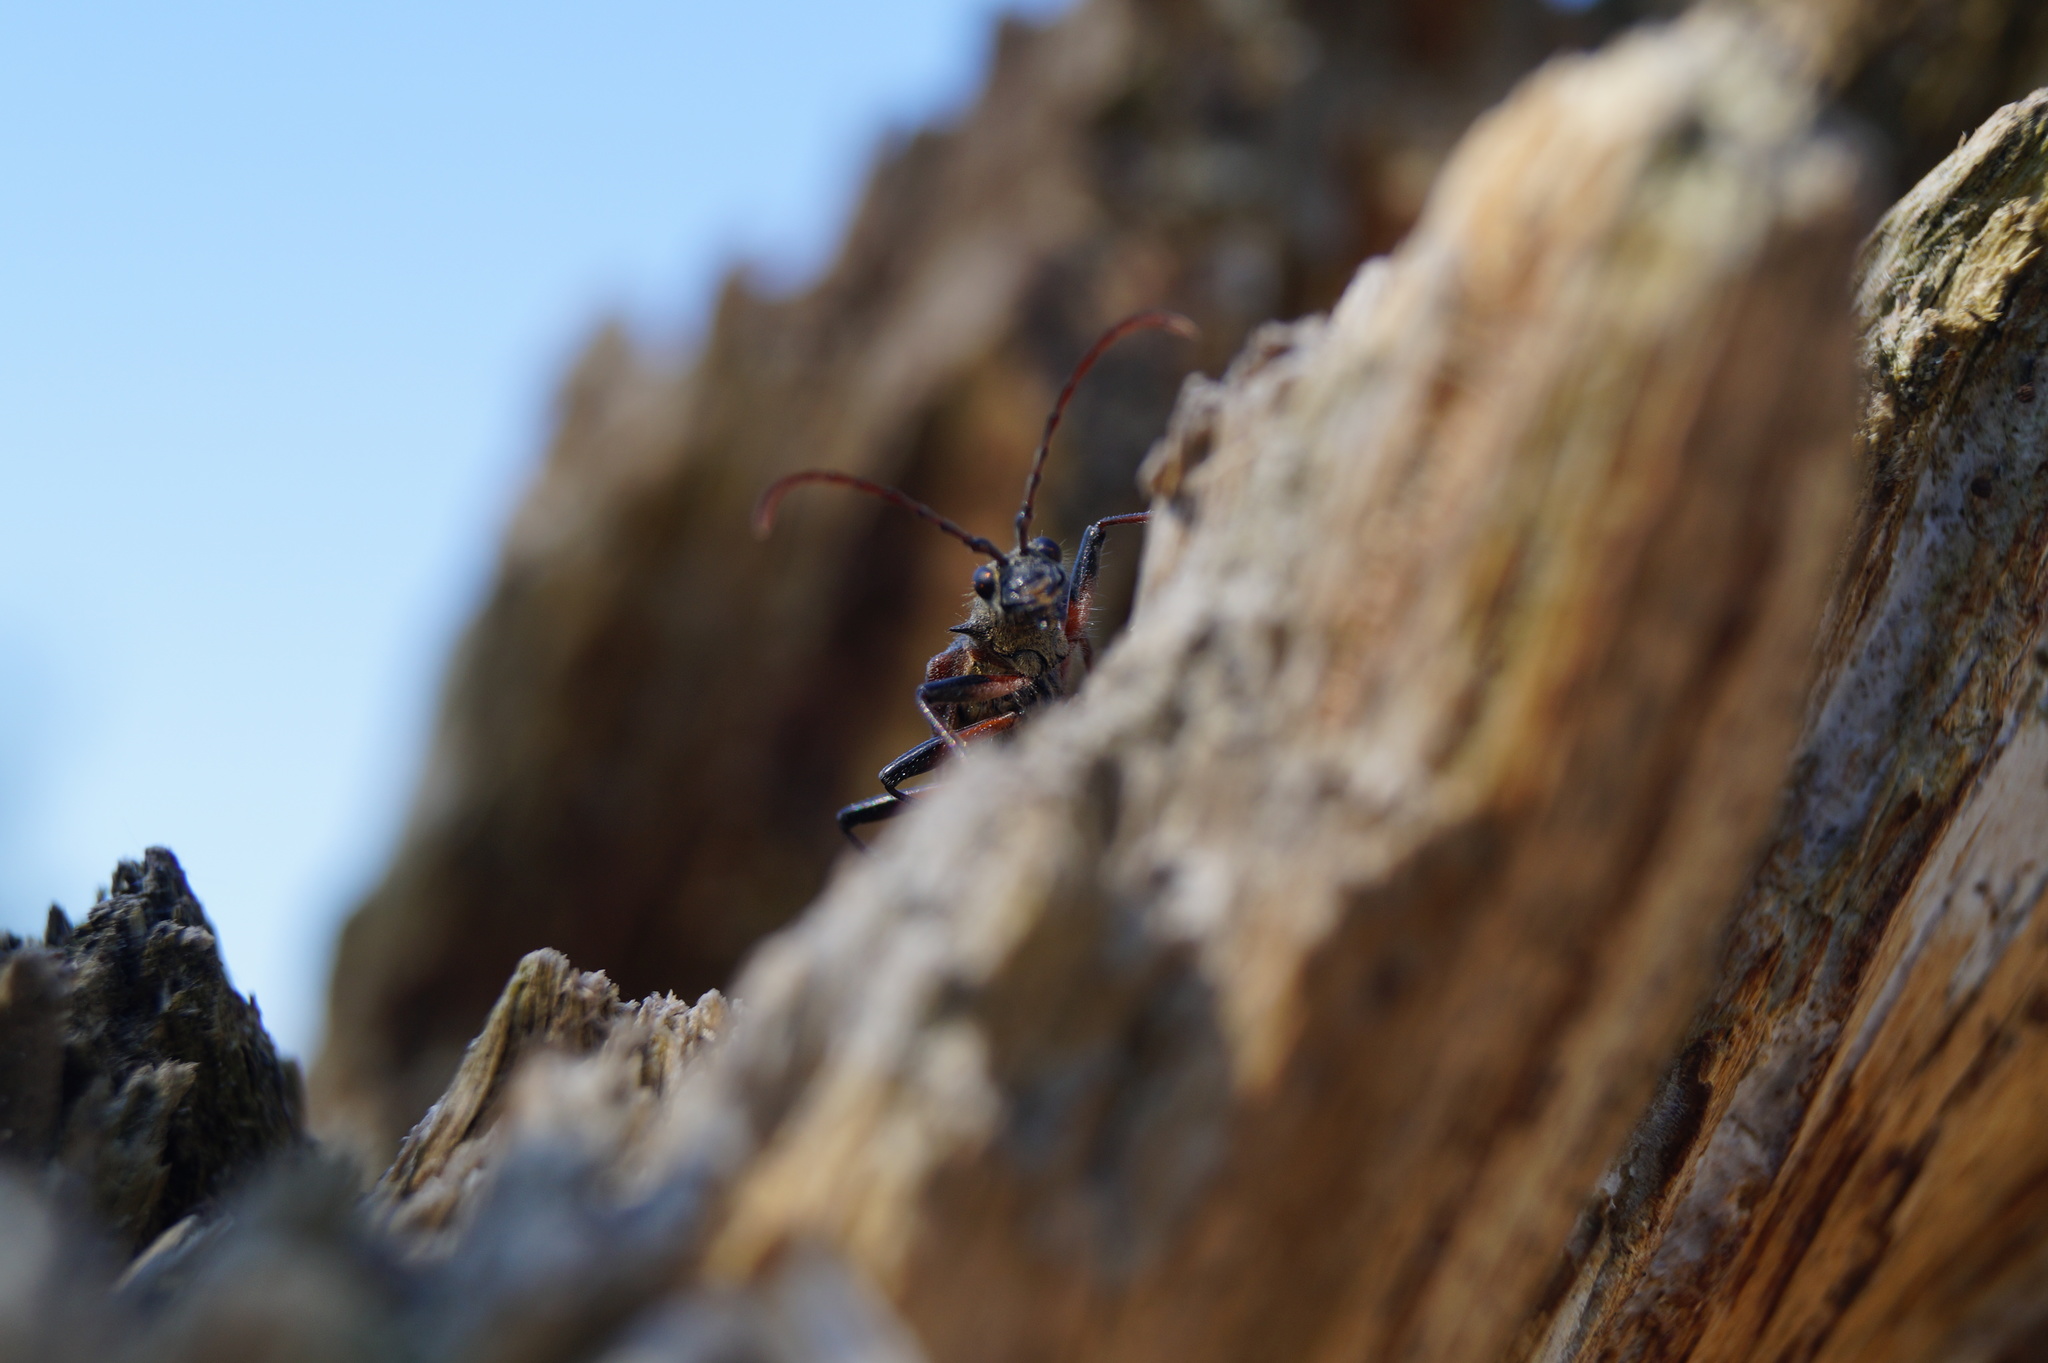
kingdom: Animalia
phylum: Arthropoda
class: Insecta
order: Coleoptera
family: Cerambycidae
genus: Rhagium
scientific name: Rhagium bifasciatum
